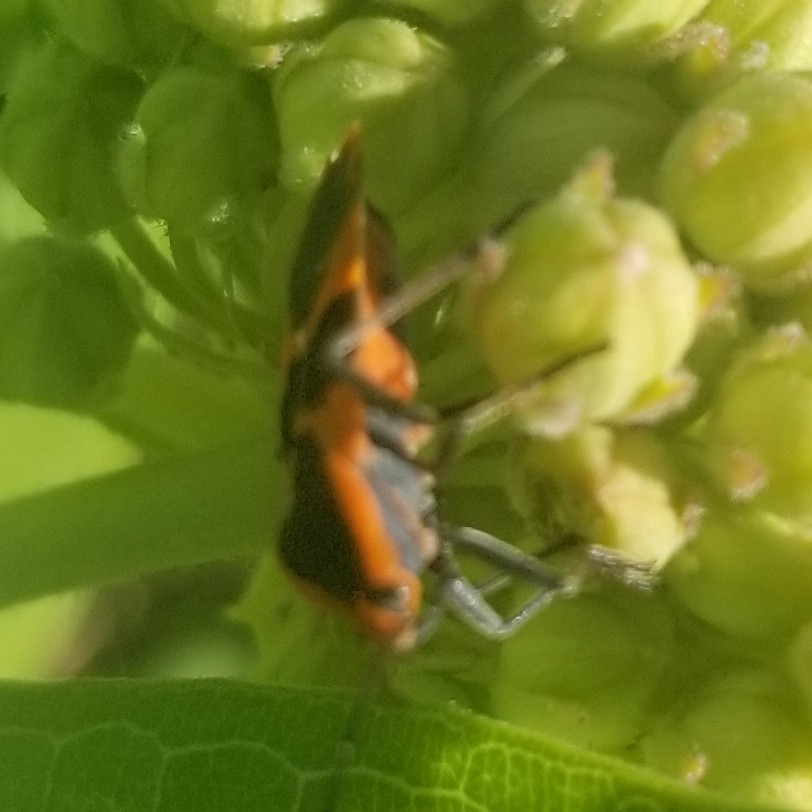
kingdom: Animalia
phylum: Arthropoda
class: Insecta
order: Hemiptera
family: Lygaeidae
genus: Oncopeltus
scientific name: Oncopeltus fasciatus
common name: Large milkweed bug
